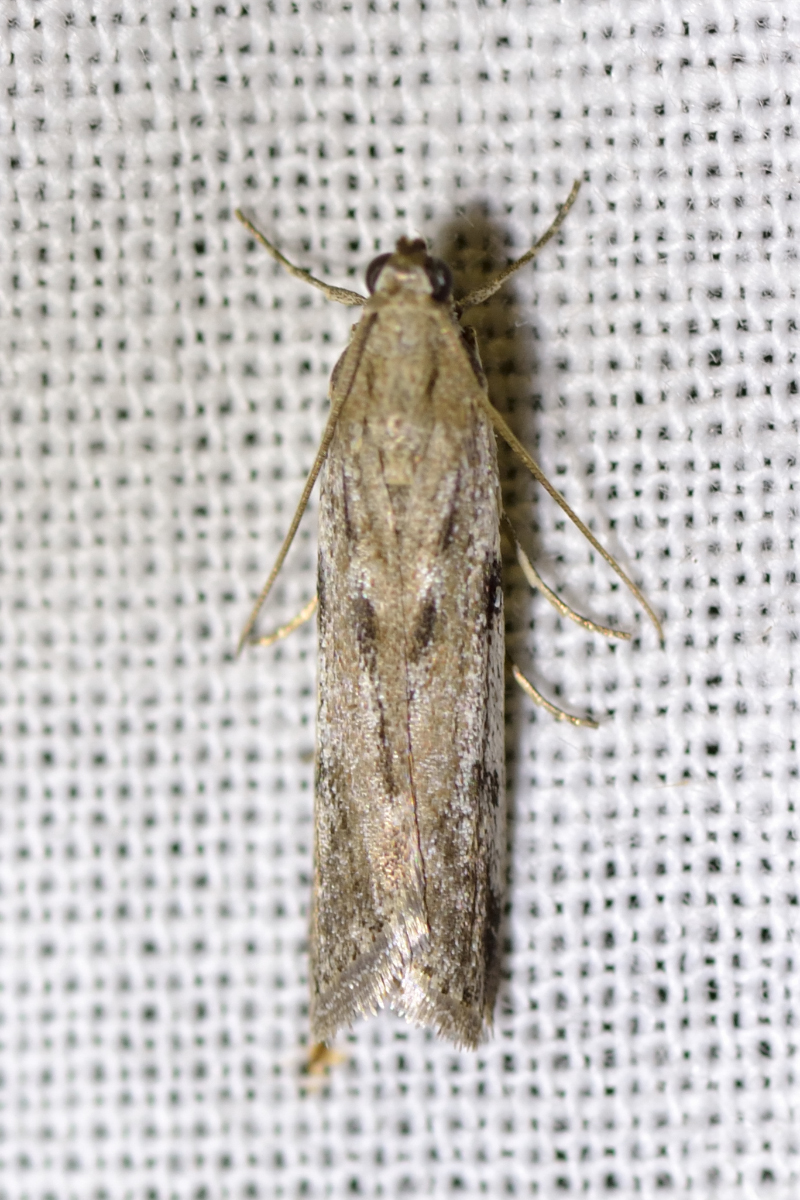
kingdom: Animalia
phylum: Arthropoda
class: Insecta
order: Lepidoptera
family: Pyralidae
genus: Phycitodes
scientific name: Phycitodes binaevella
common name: Ermine knot-horn
